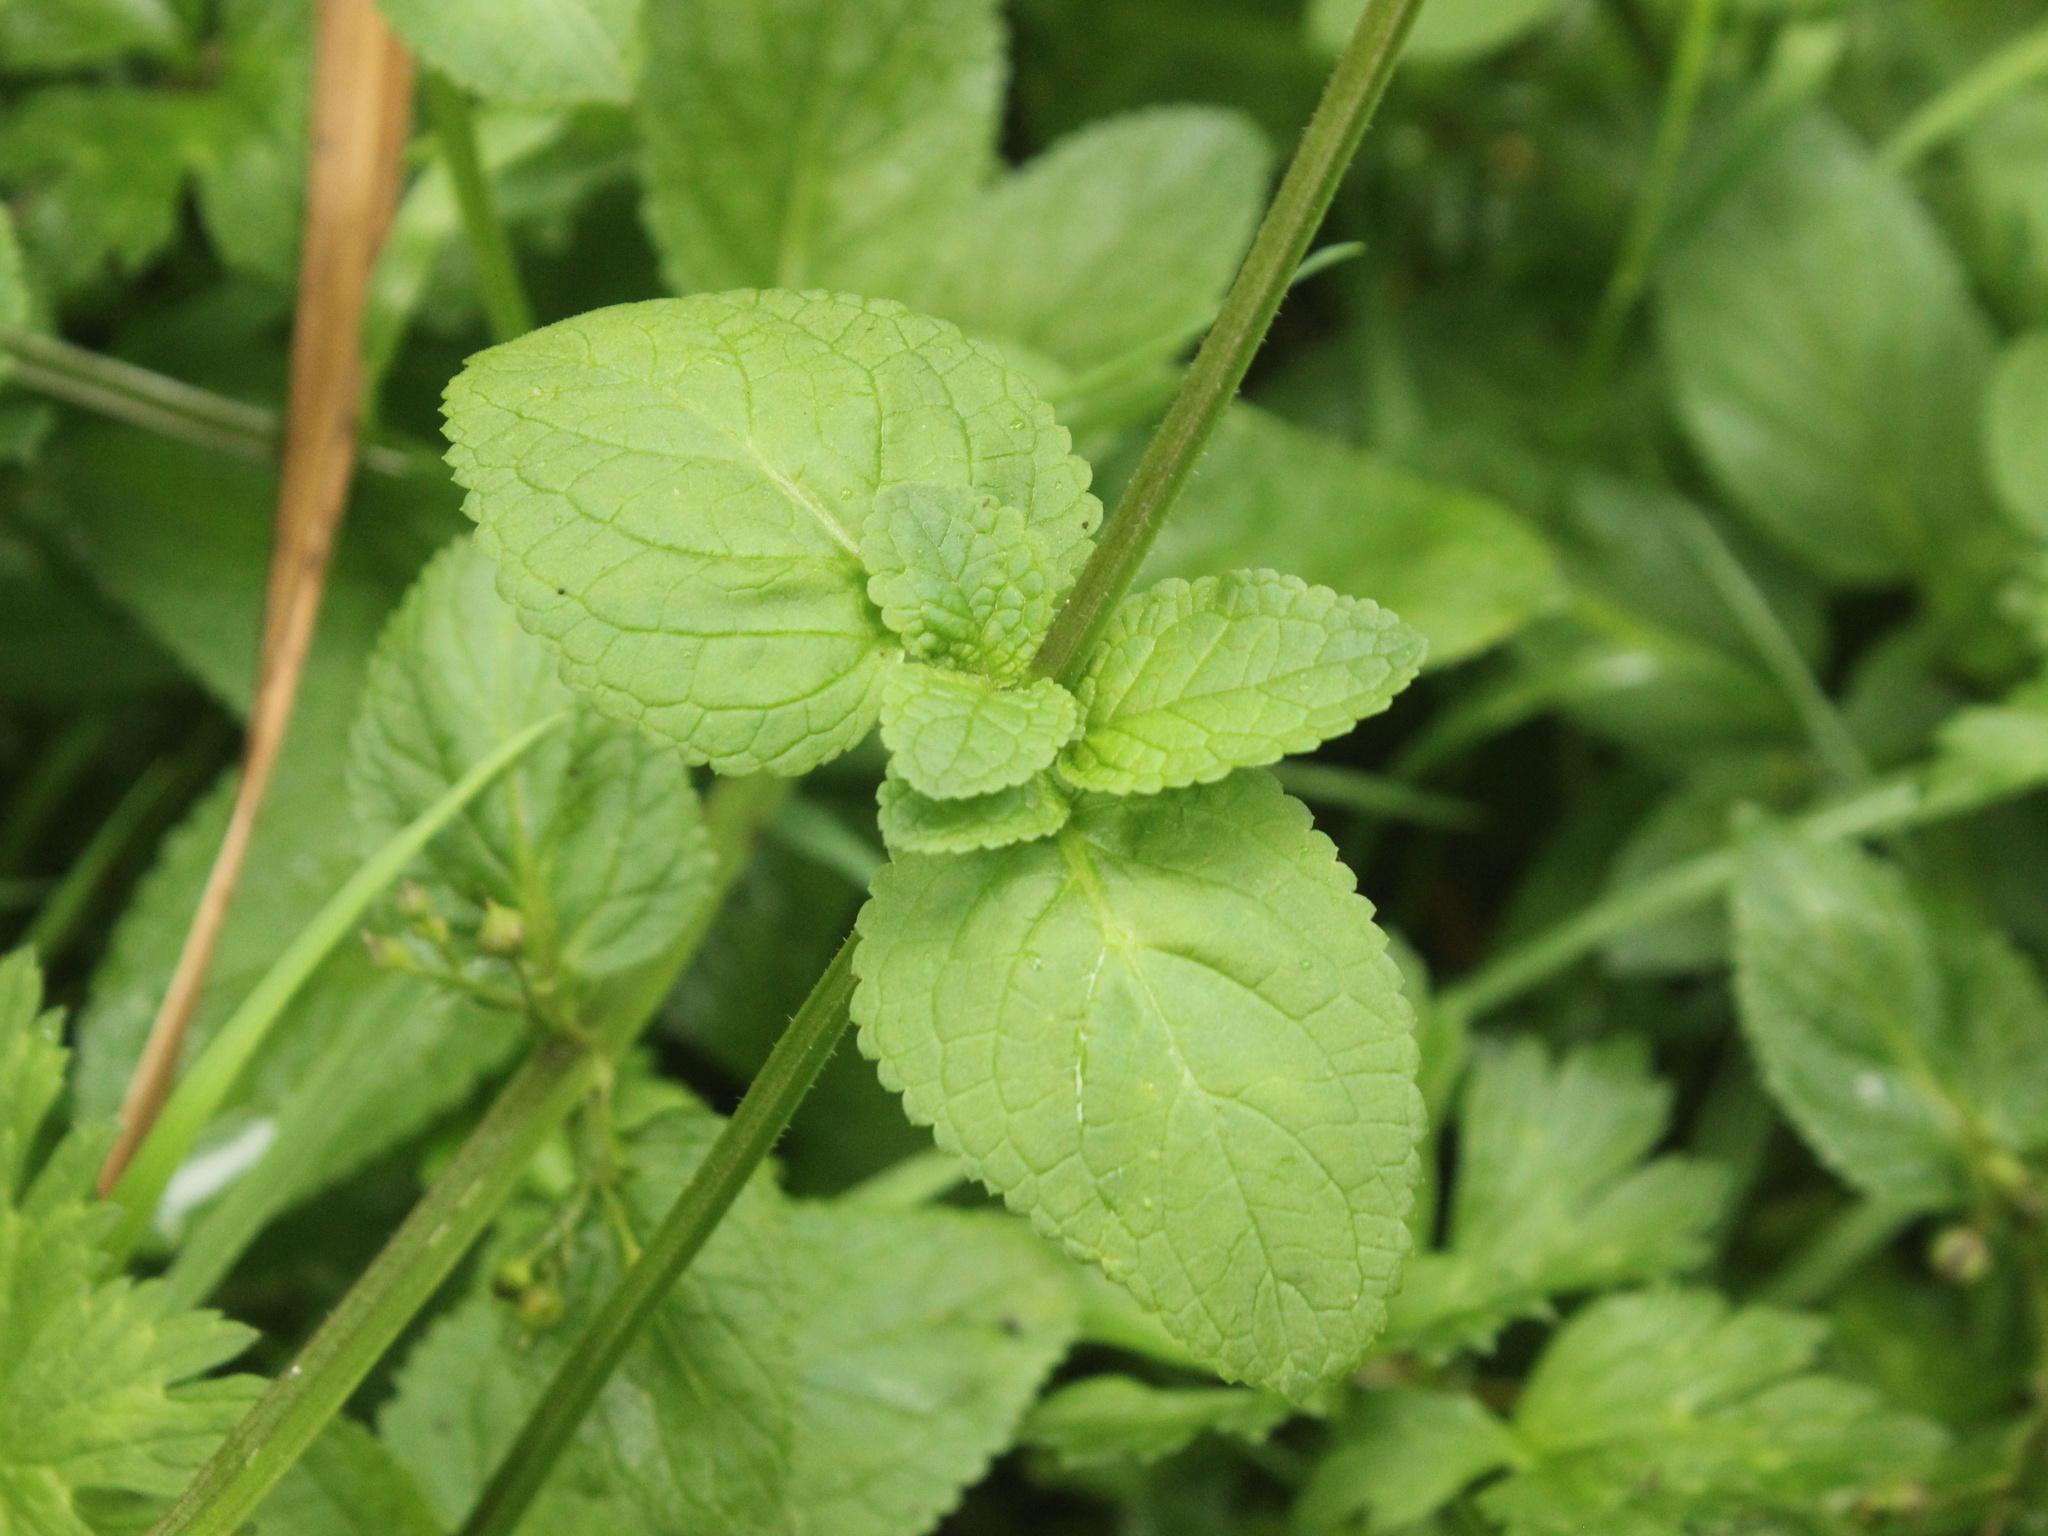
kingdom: Plantae
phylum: Tracheophyta
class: Magnoliopsida
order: Lamiales
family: Scrophulariaceae
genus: Scrophularia
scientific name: Scrophularia auriculata
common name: Water betony
